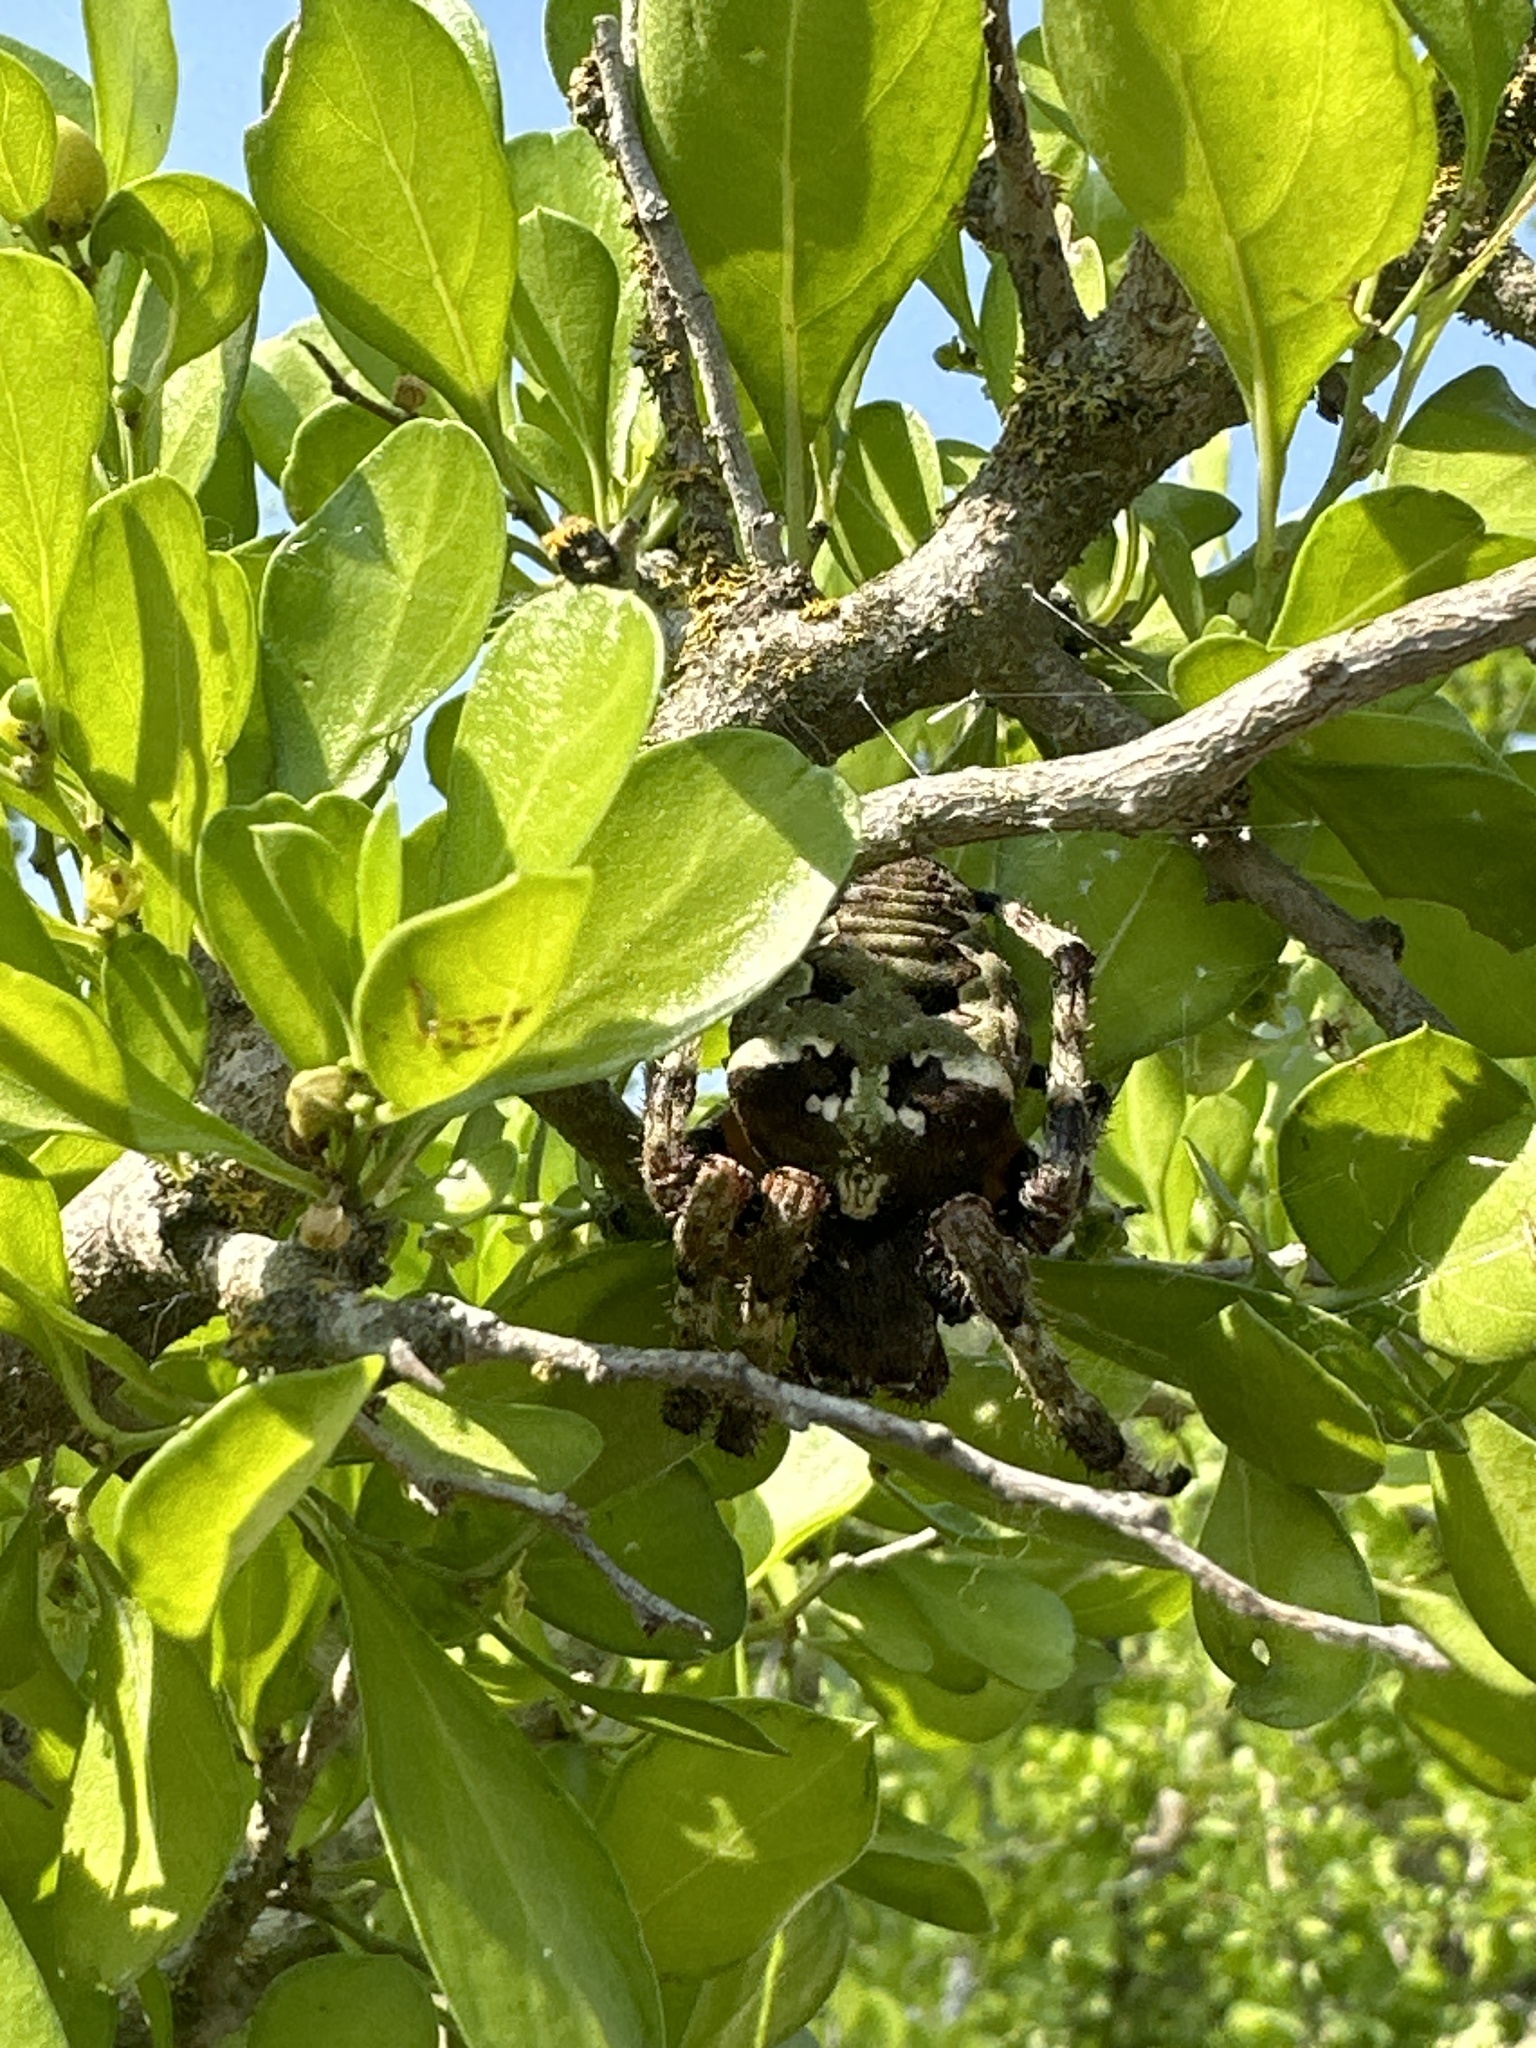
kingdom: Animalia
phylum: Arthropoda
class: Arachnida
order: Araneae
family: Araneidae
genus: Araneus
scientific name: Araneus bicentenarius
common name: Giant lichen orbweaver
